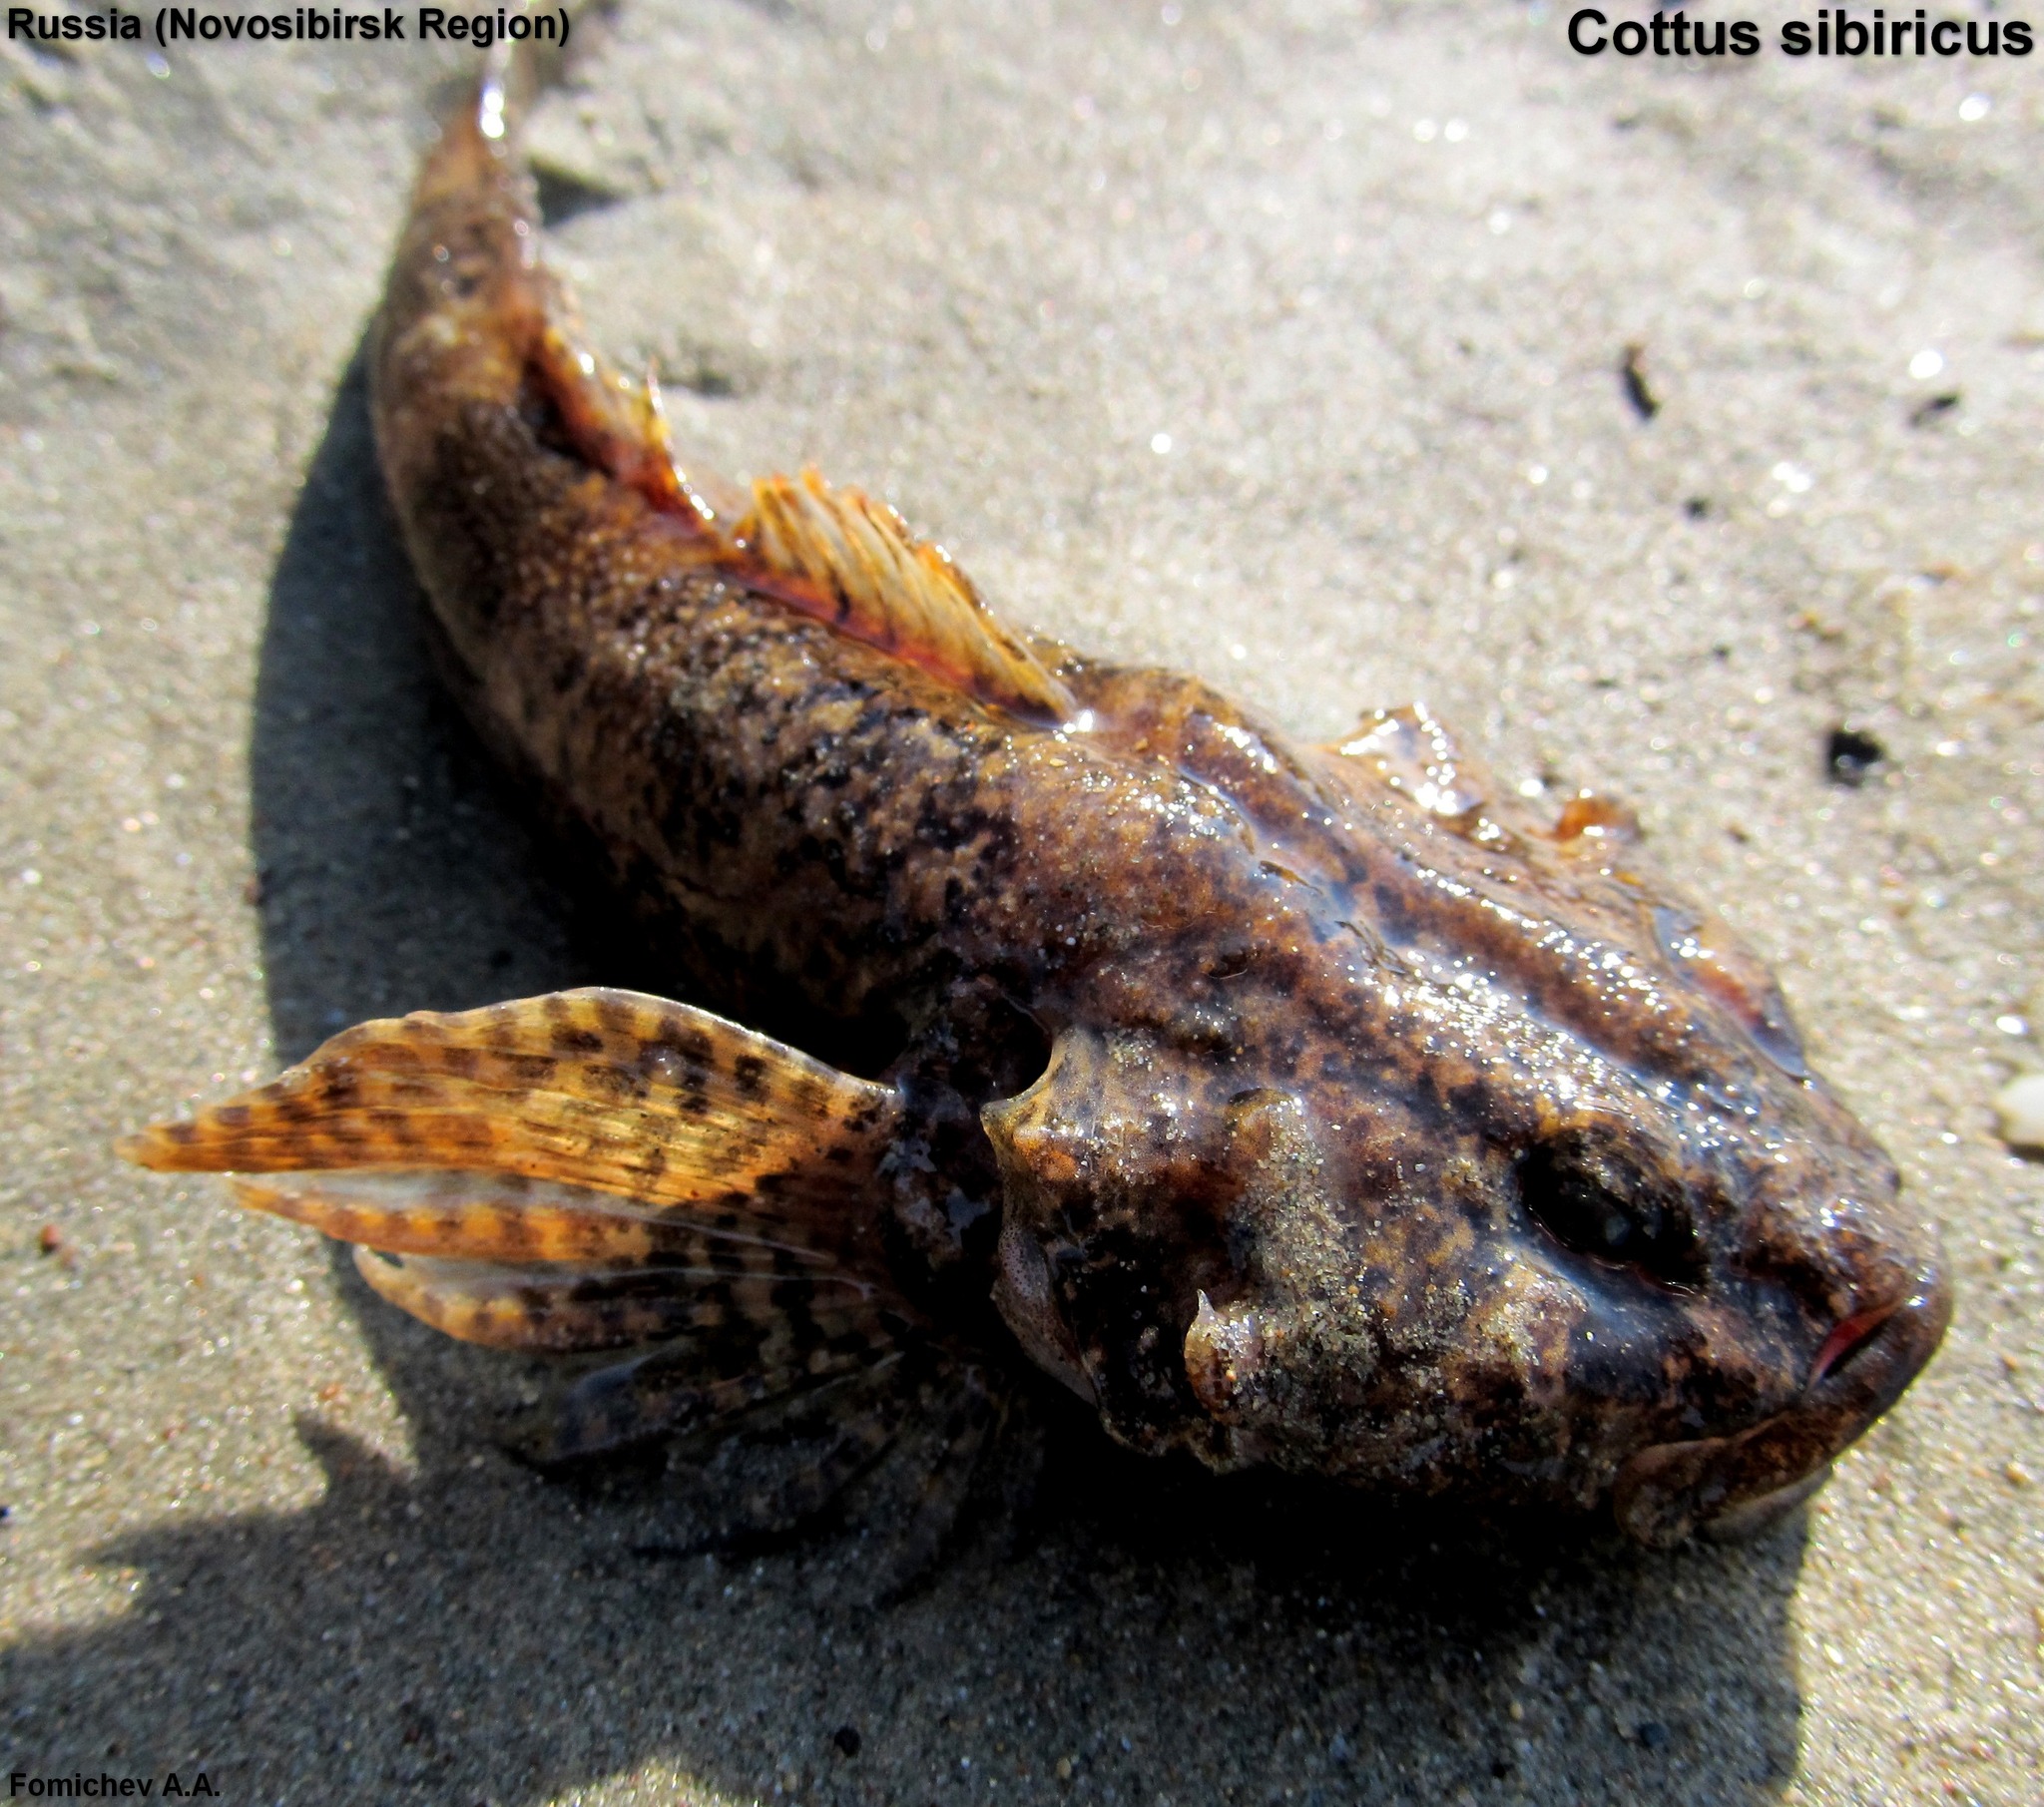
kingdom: Animalia
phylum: Chordata
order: Scorpaeniformes
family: Cottidae
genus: Cottus
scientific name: Cottus sibiricus
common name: Siberian miller's thumb
